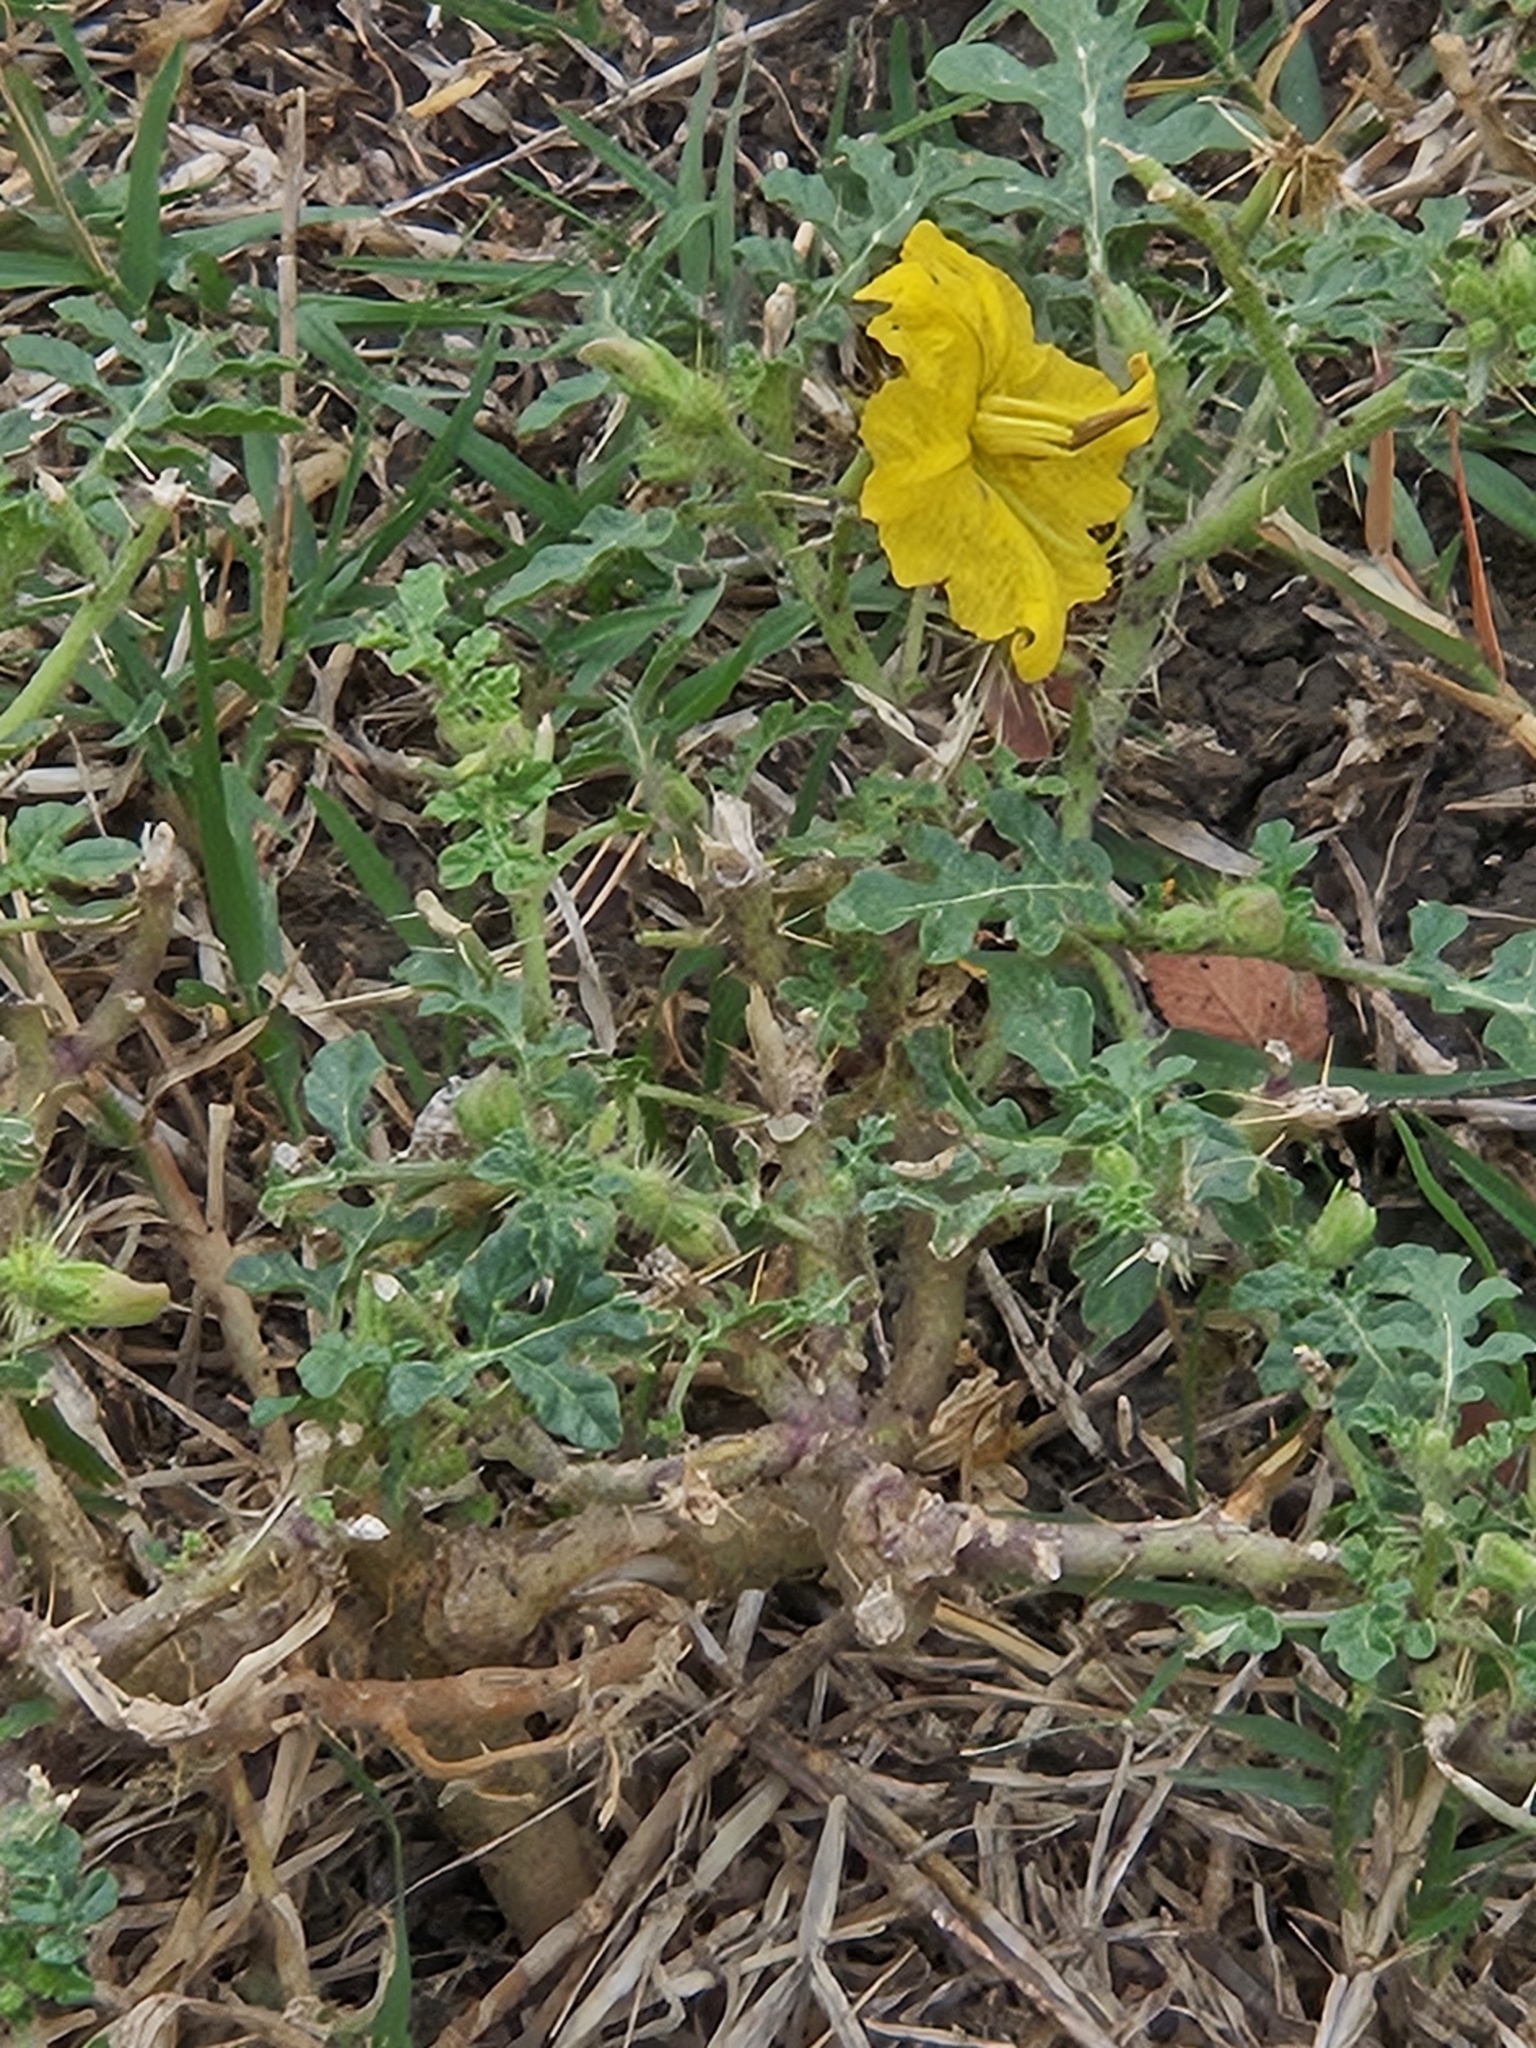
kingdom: Plantae
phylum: Tracheophyta
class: Magnoliopsida
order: Solanales
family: Solanaceae
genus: Solanum
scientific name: Solanum angustifolium
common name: Buffalobur nightshade
